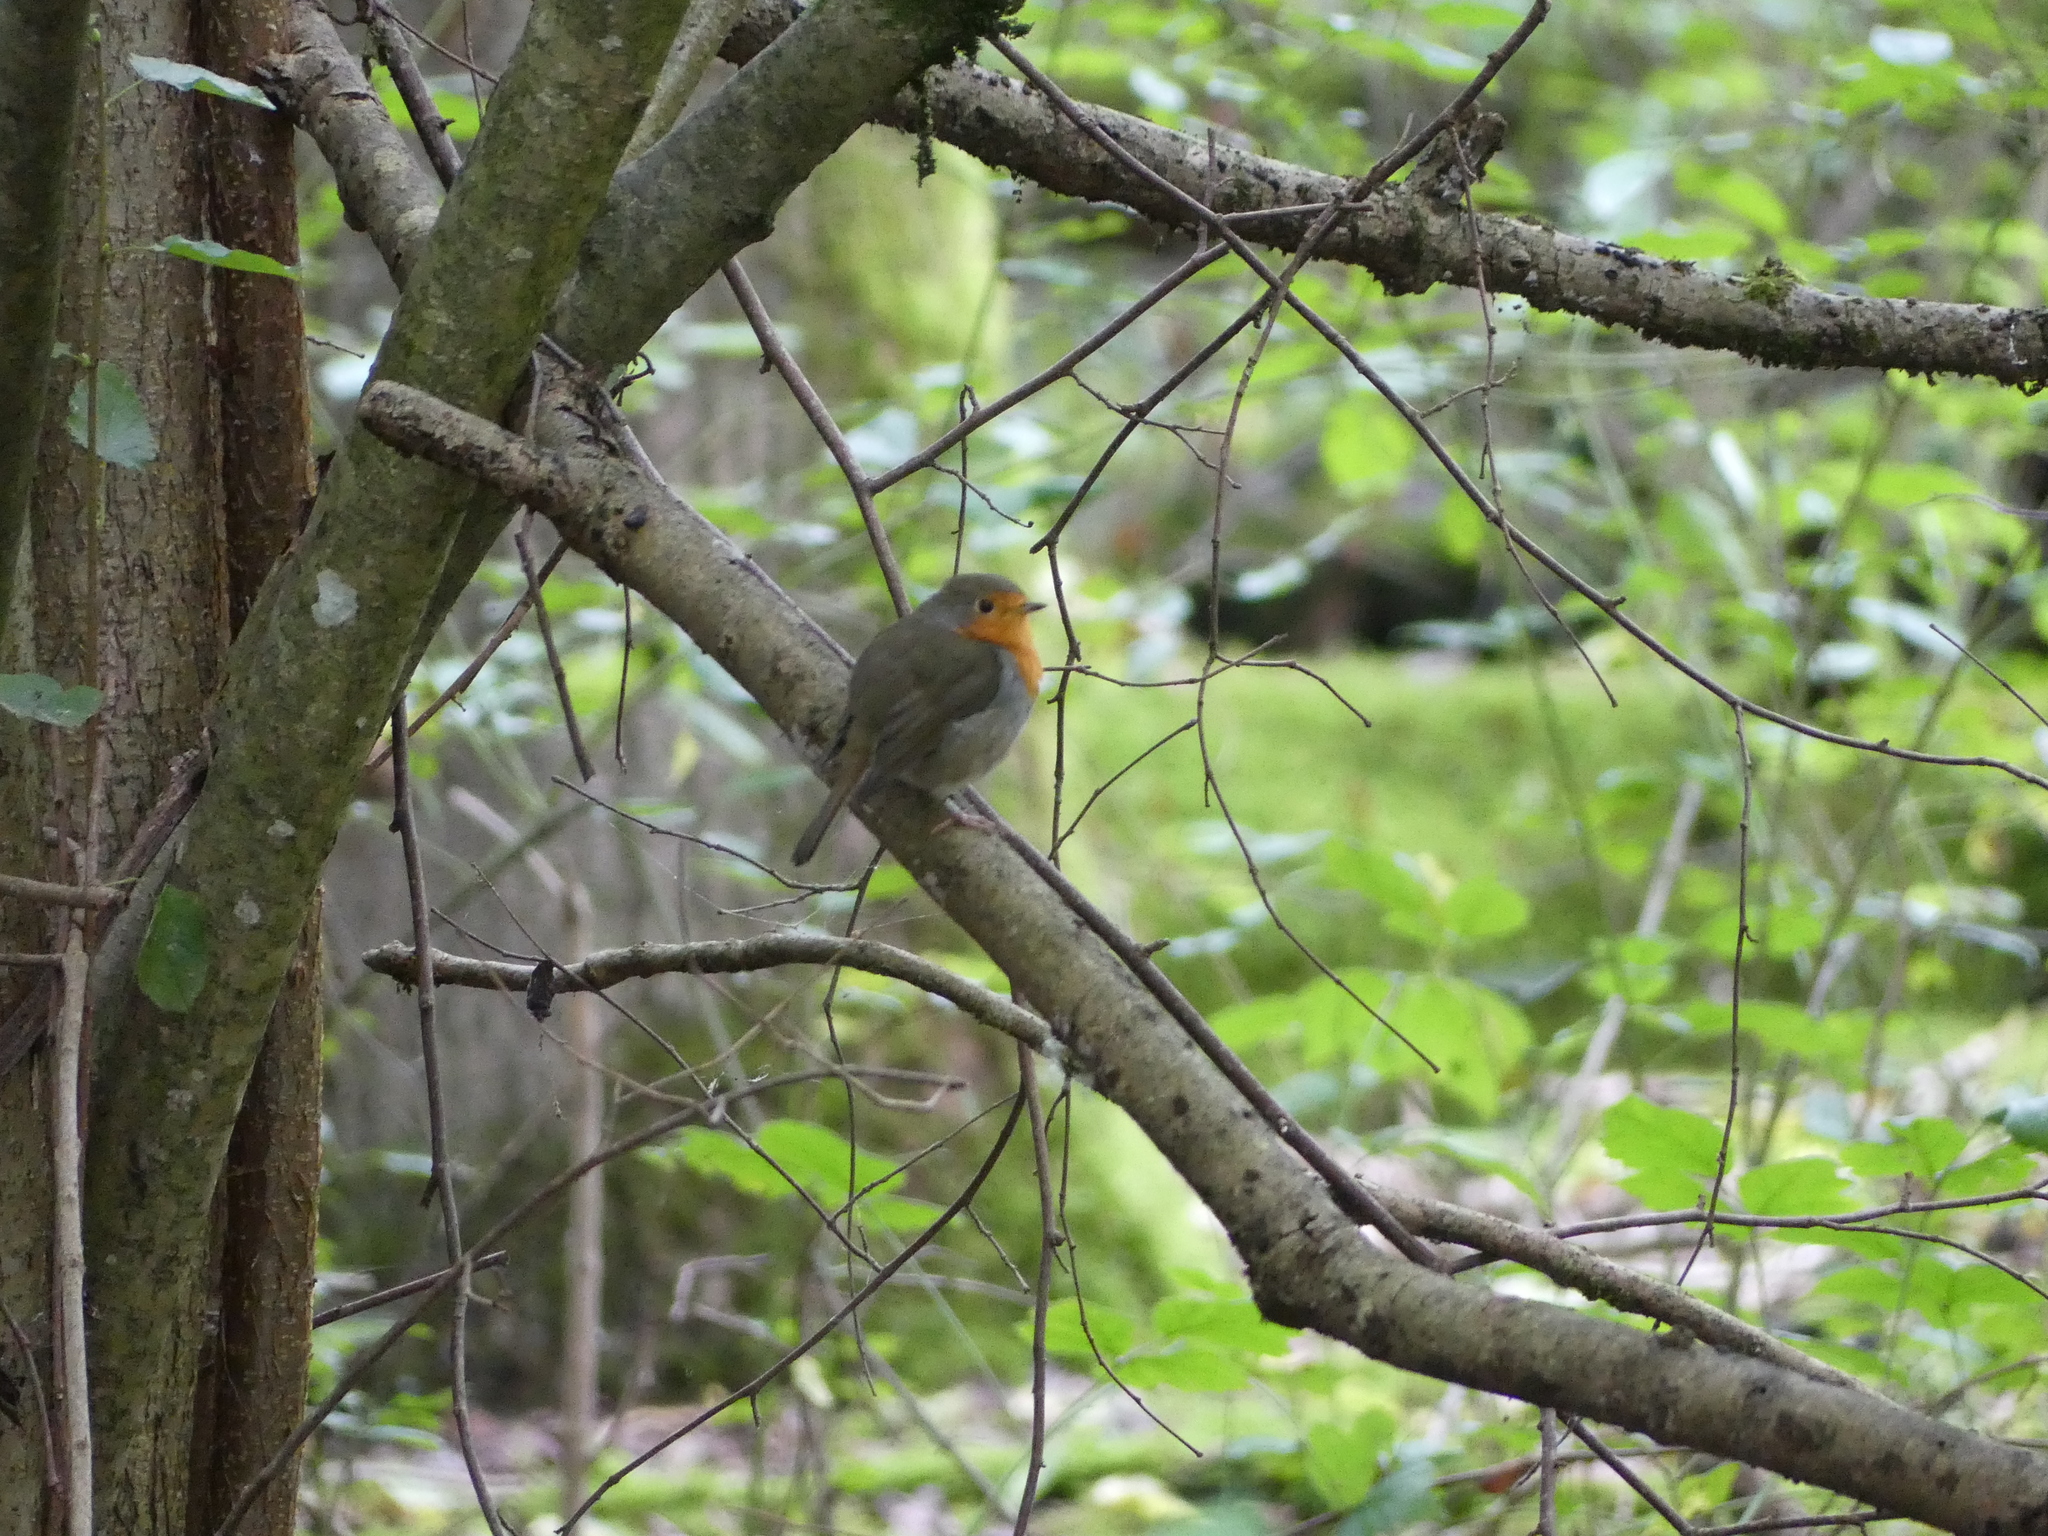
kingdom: Animalia
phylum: Chordata
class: Aves
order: Passeriformes
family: Muscicapidae
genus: Erithacus
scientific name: Erithacus rubecula
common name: European robin
